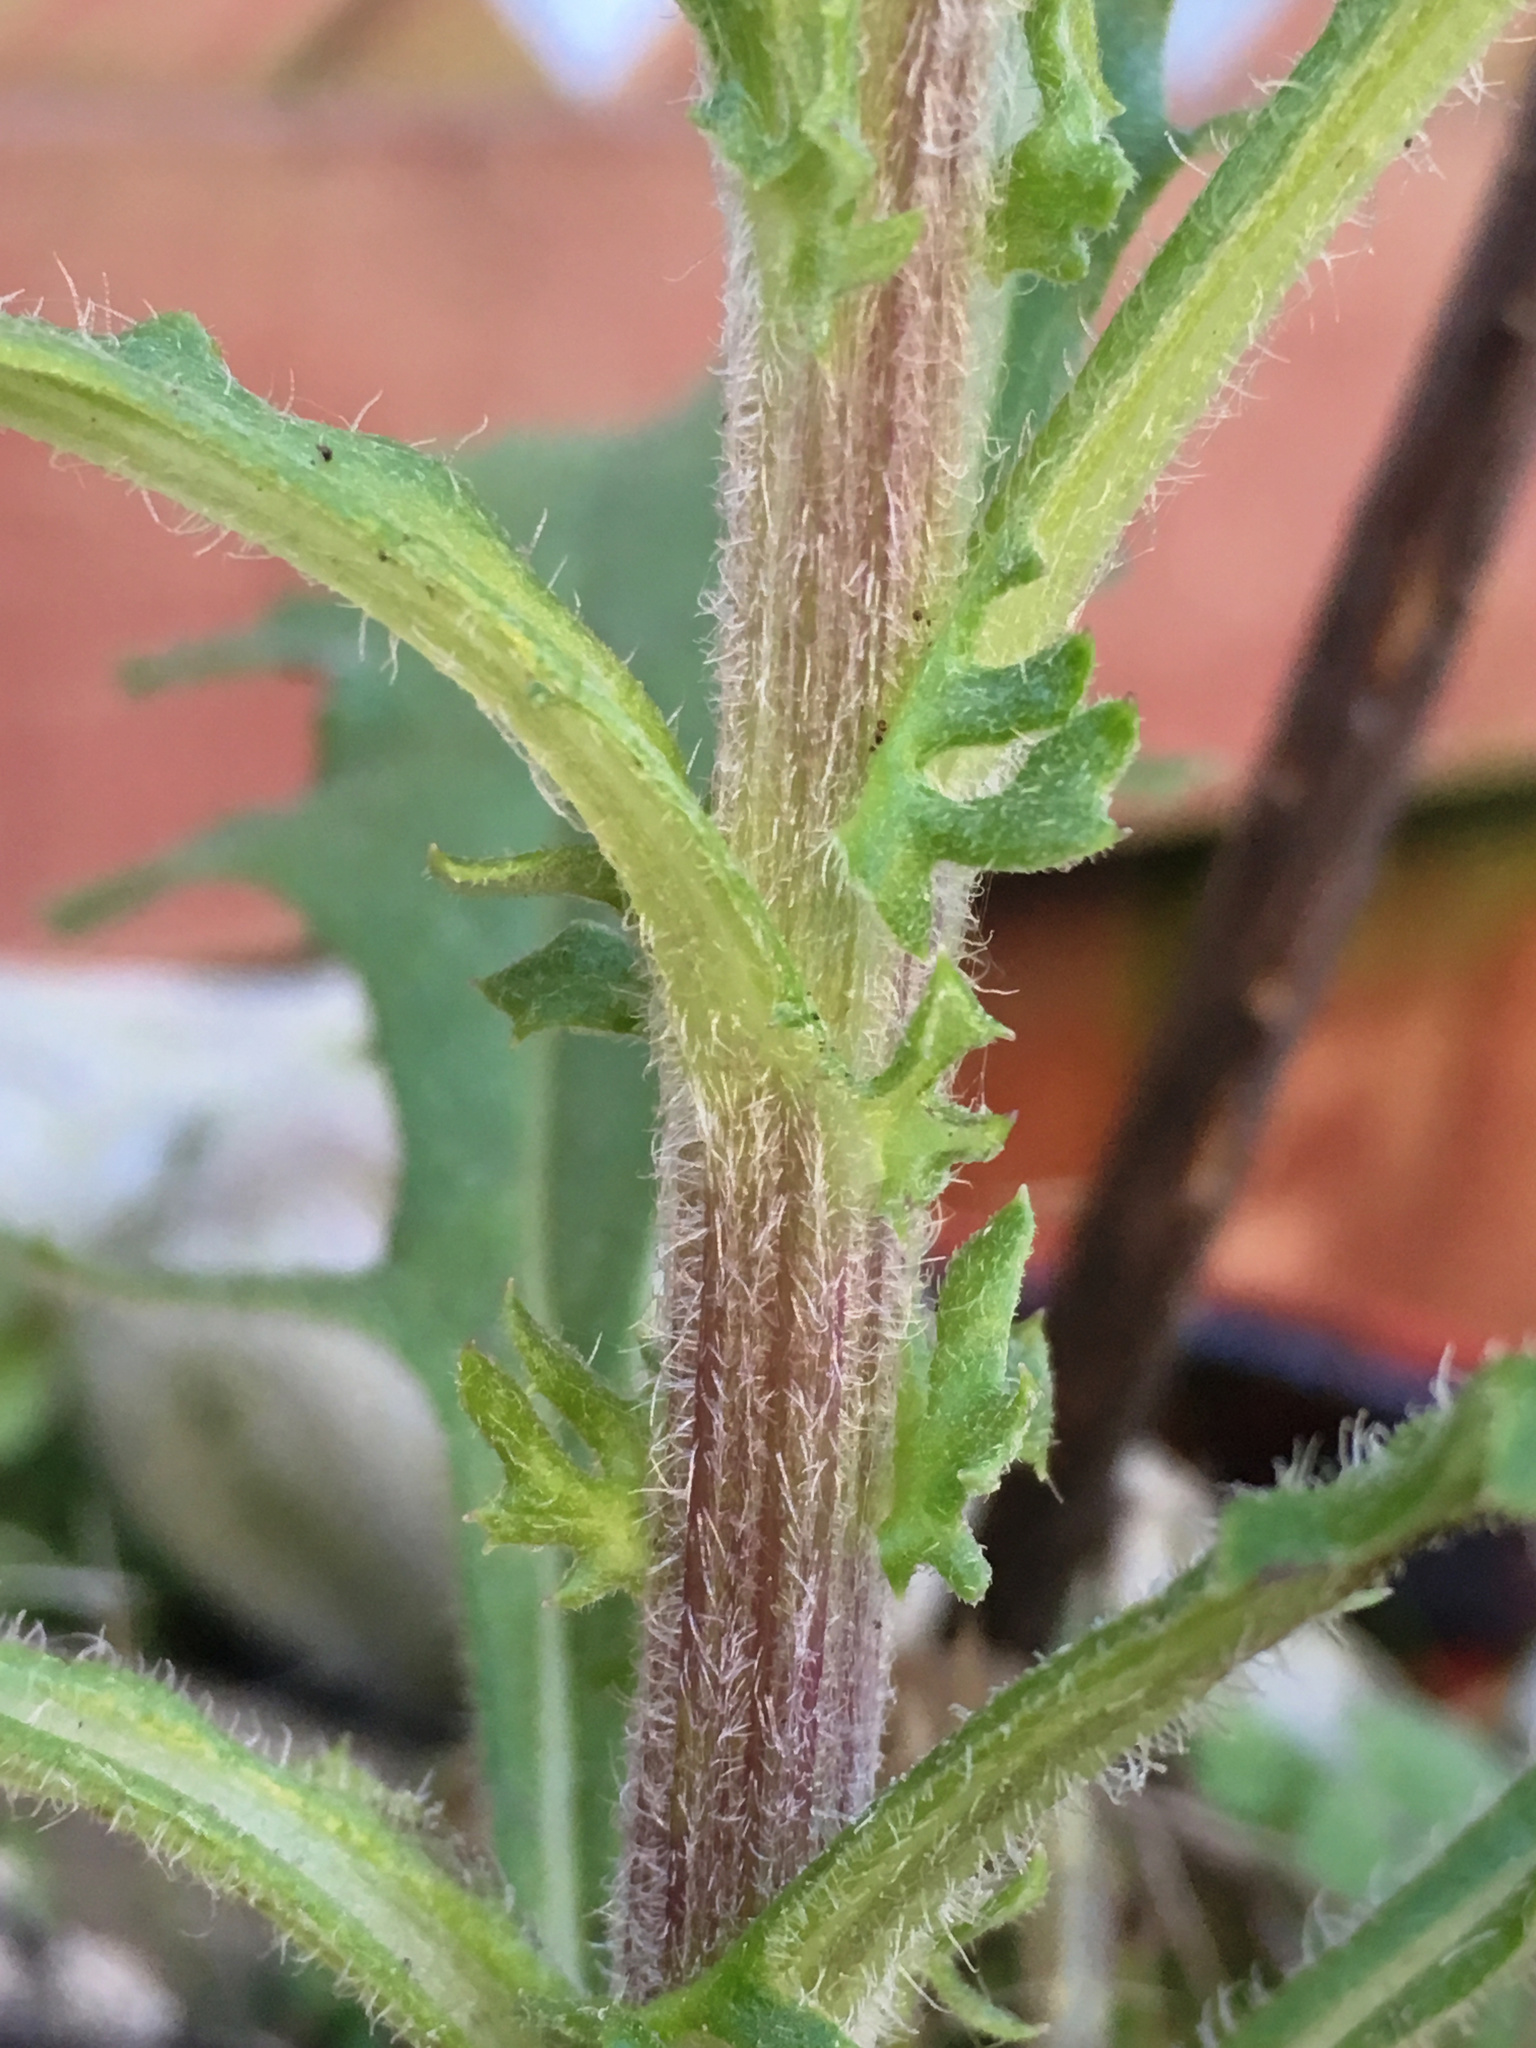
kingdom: Plantae
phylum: Tracheophyta
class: Magnoliopsida
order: Asterales
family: Asteraceae
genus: Senecio
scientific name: Senecio hispidulus
